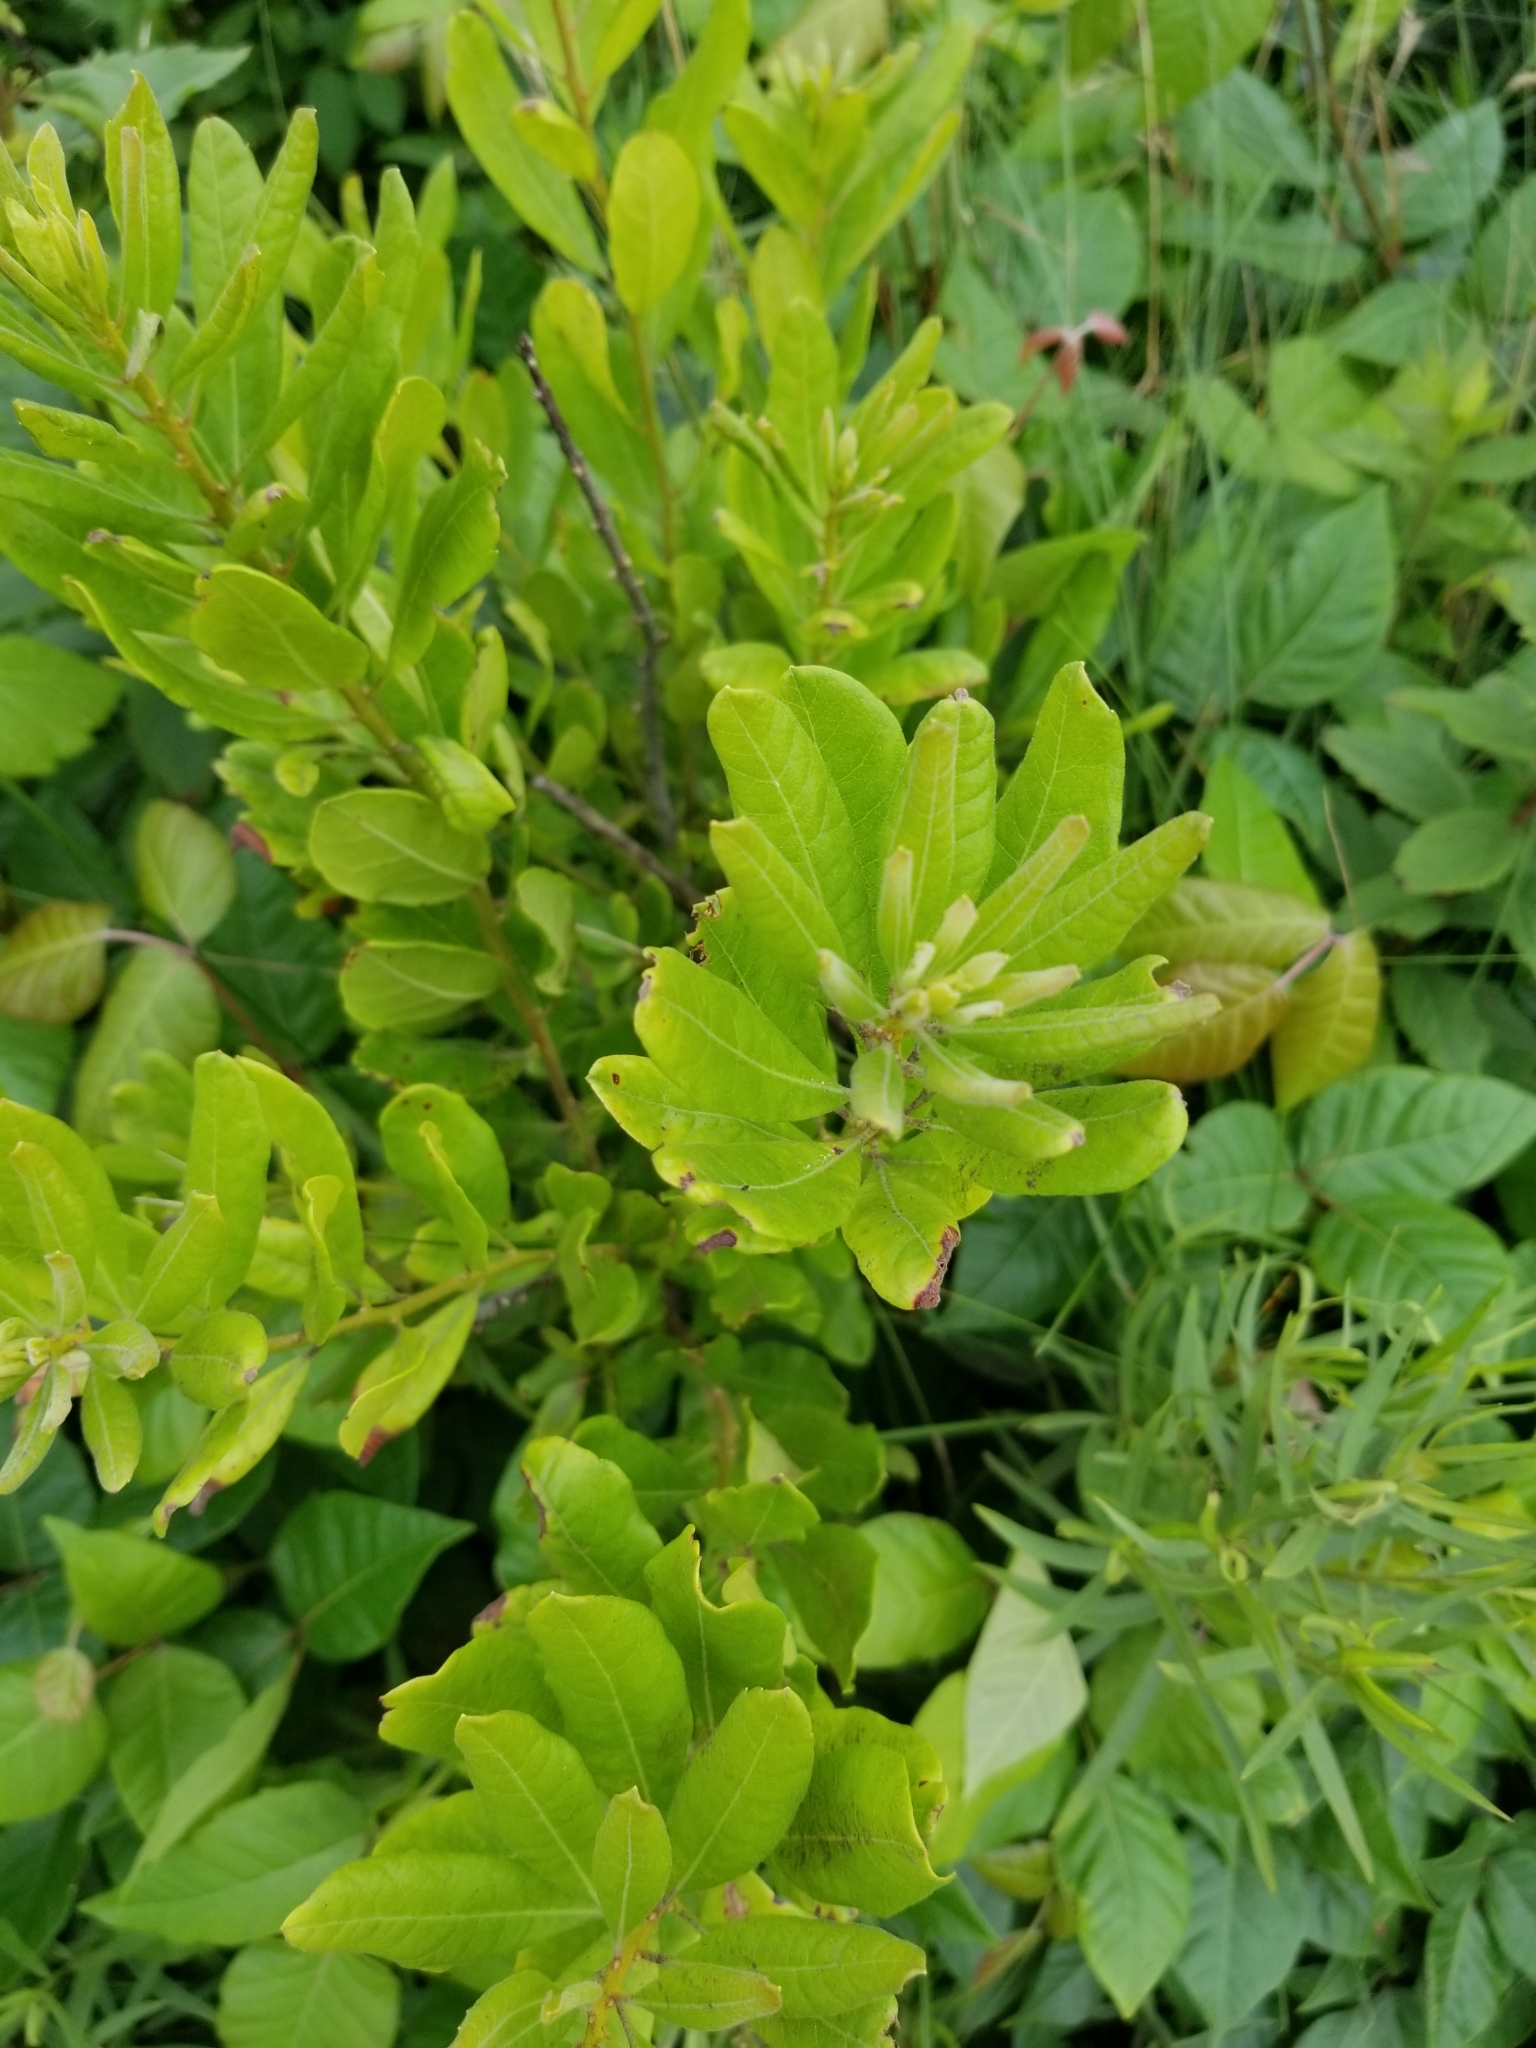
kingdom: Plantae
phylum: Tracheophyta
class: Magnoliopsida
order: Fagales
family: Myricaceae
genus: Morella
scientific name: Morella pensylvanica
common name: Northern bayberry
